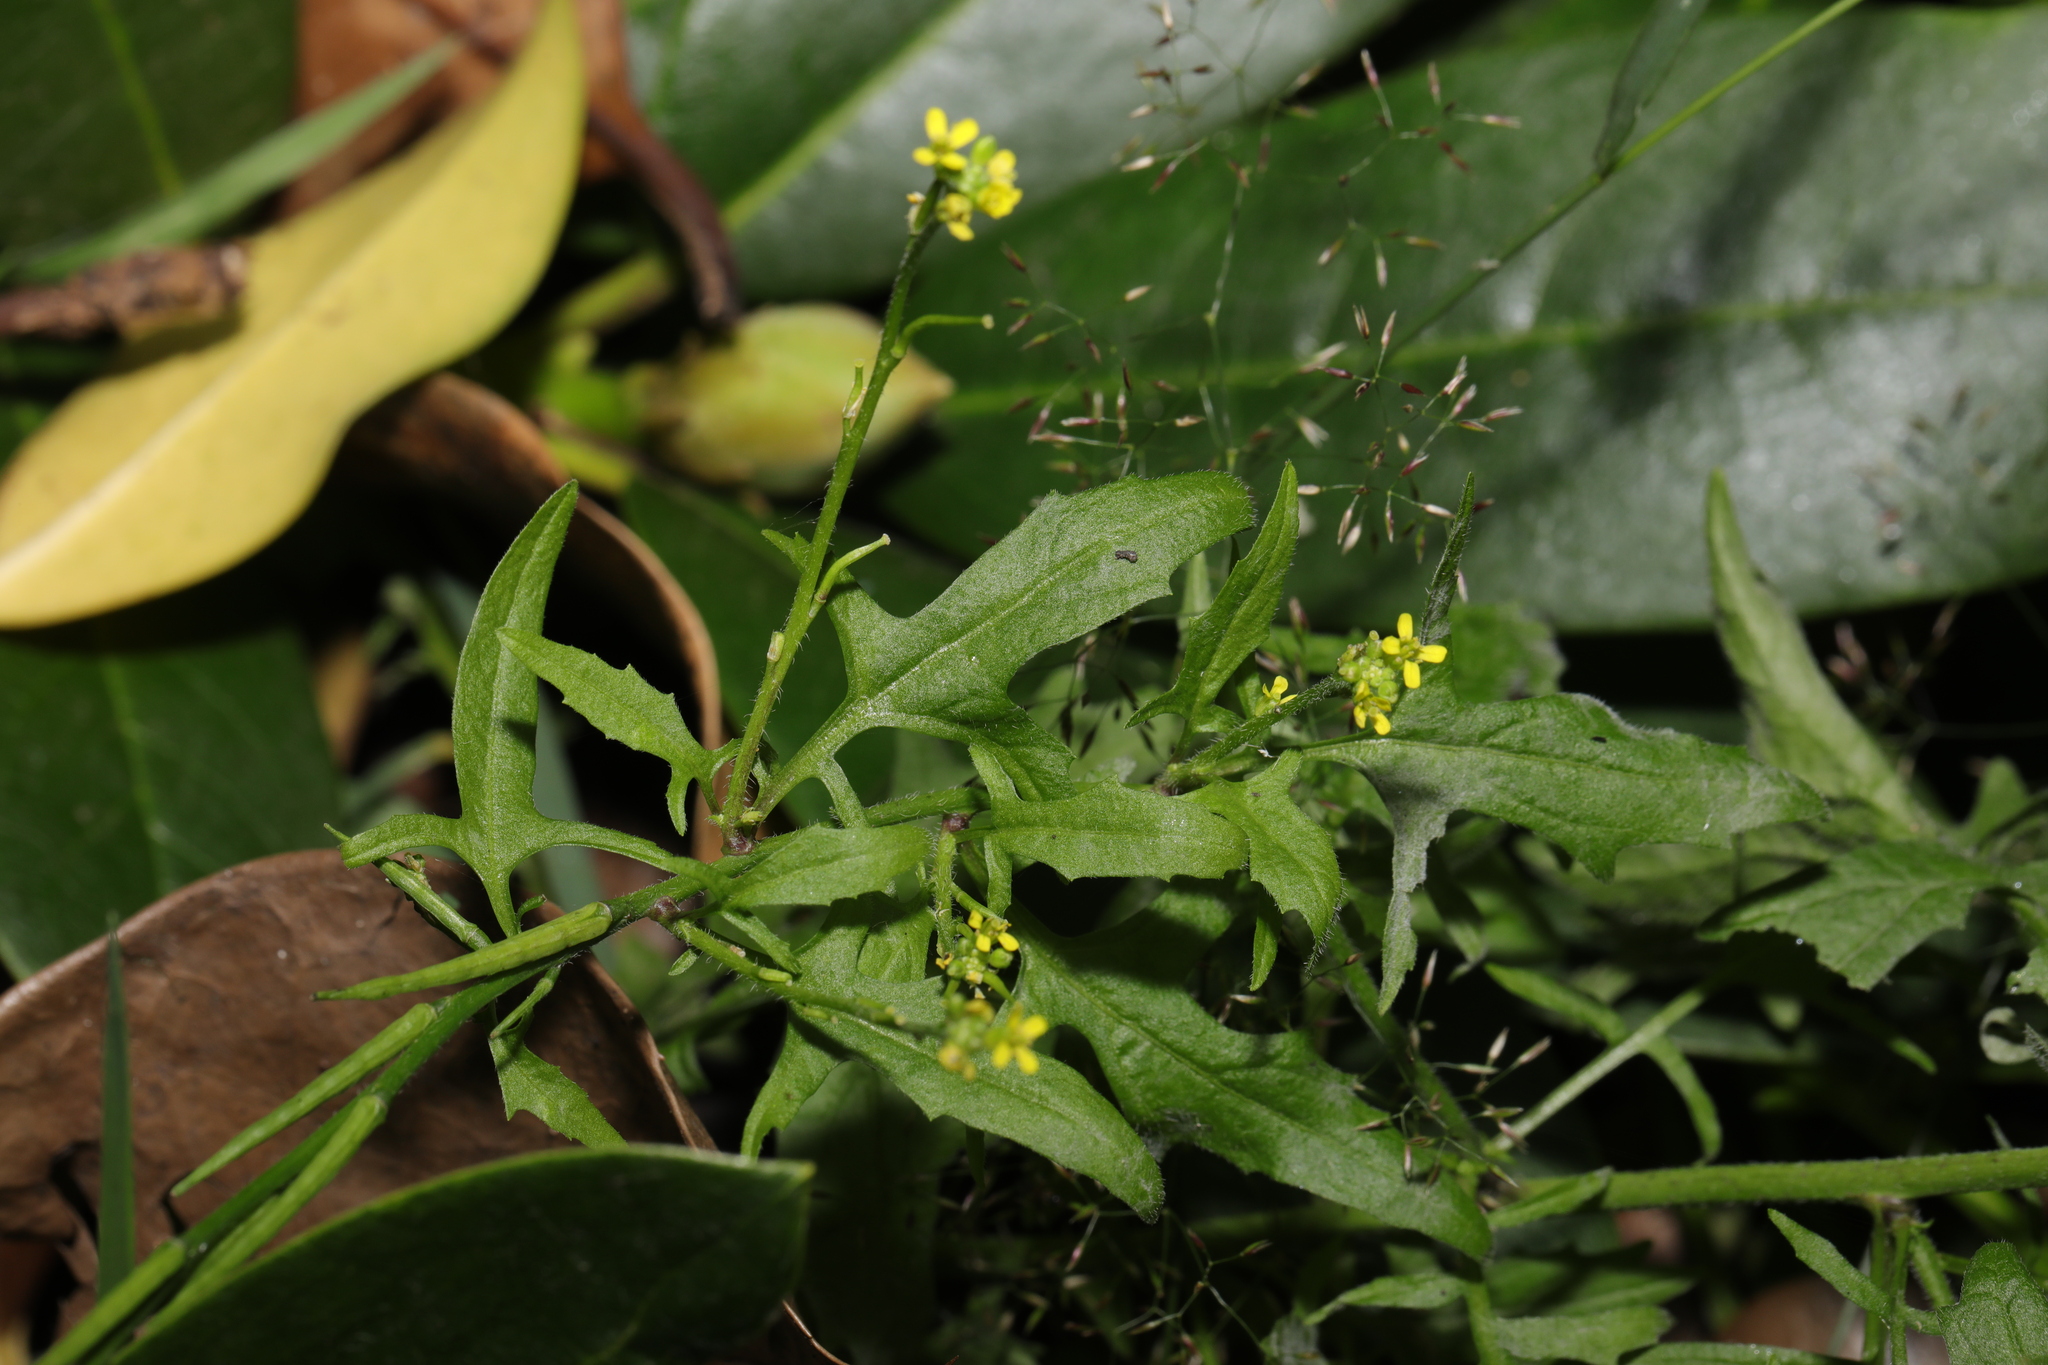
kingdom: Plantae
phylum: Tracheophyta
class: Magnoliopsida
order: Brassicales
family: Brassicaceae
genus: Sisymbrium
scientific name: Sisymbrium officinale
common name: Hedge mustard
